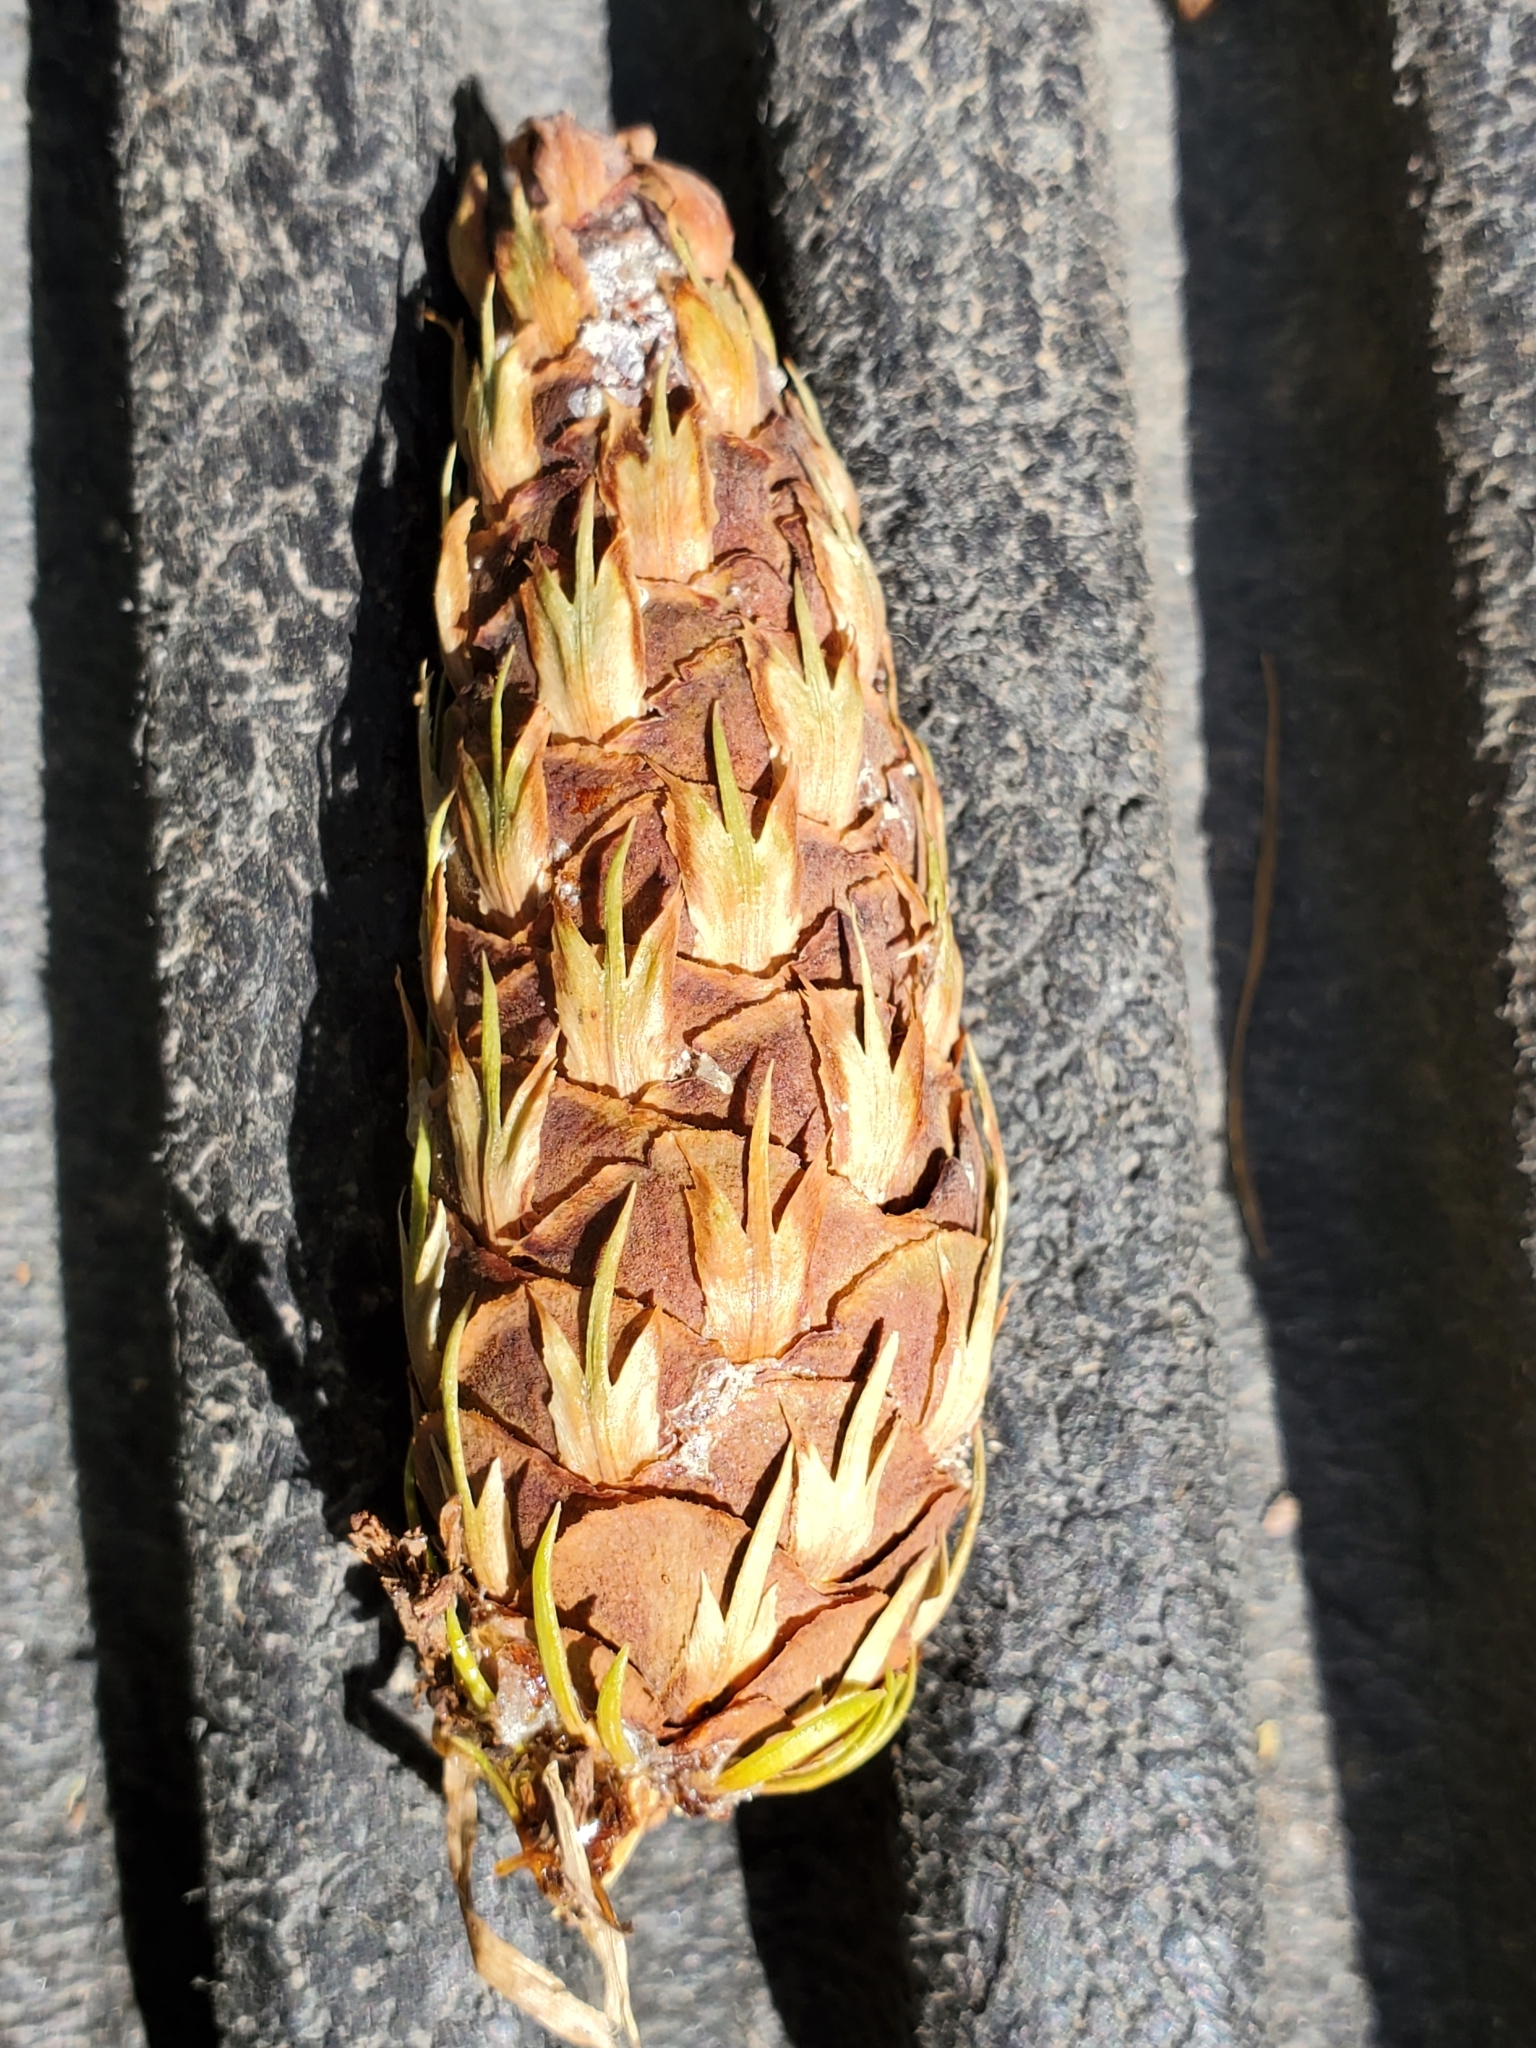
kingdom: Plantae
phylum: Tracheophyta
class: Pinopsida
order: Pinales
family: Pinaceae
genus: Pseudotsuga
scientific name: Pseudotsuga menziesii
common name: Douglas fir
